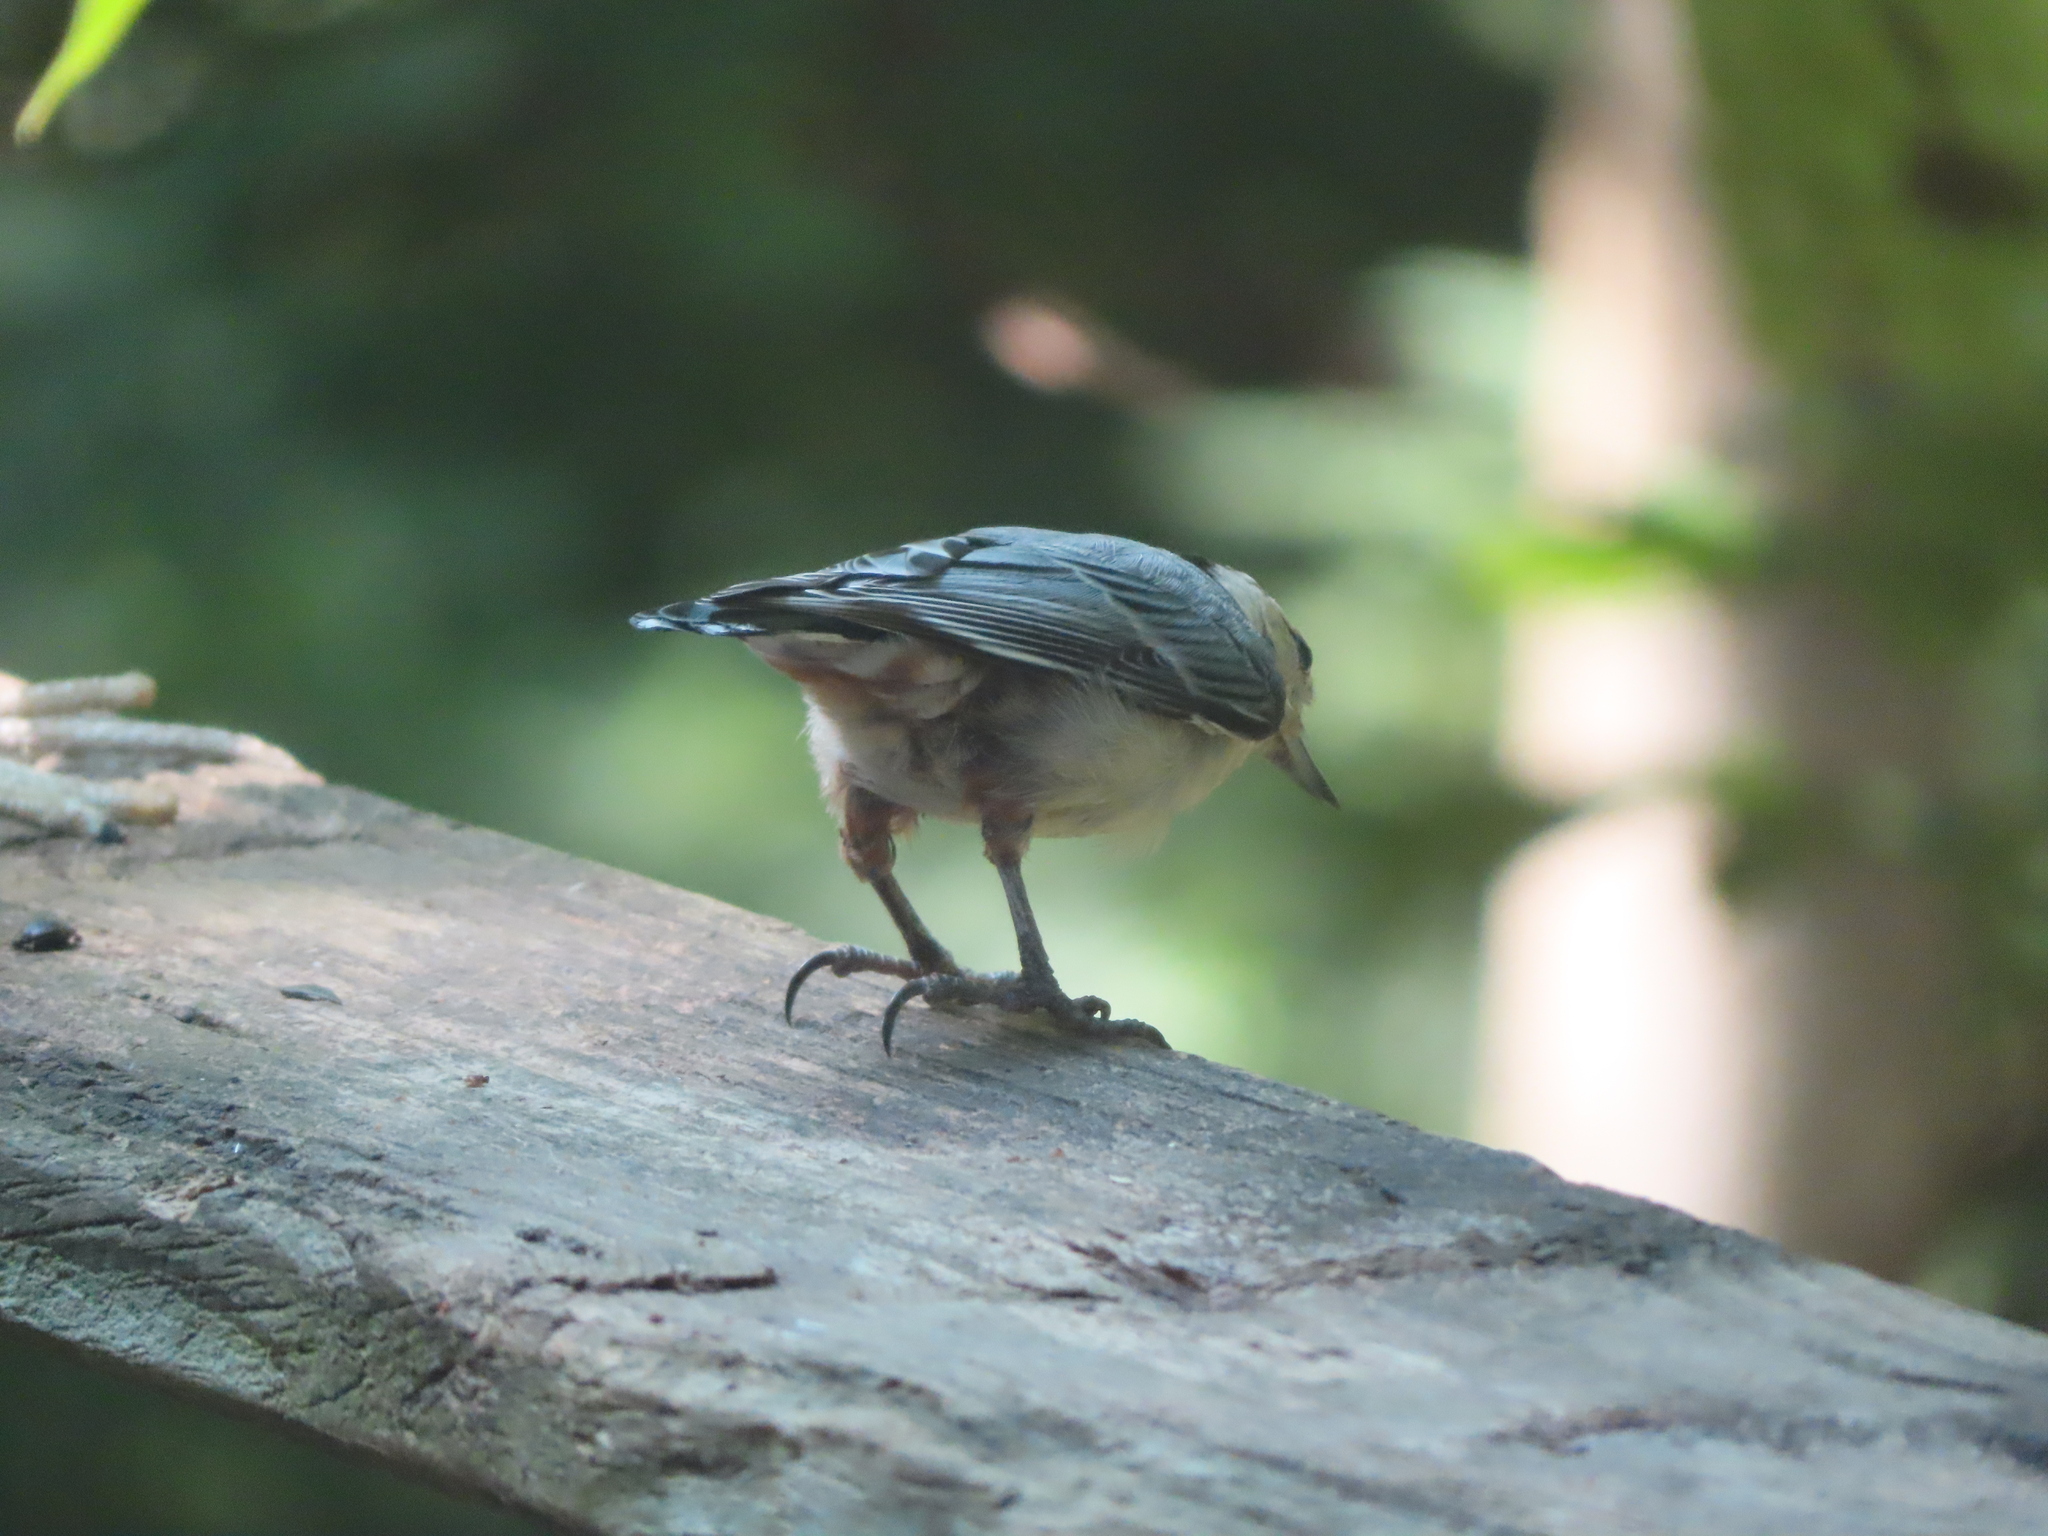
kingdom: Animalia
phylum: Chordata
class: Aves
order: Passeriformes
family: Sittidae
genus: Sitta
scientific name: Sitta carolinensis
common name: White-breasted nuthatch
